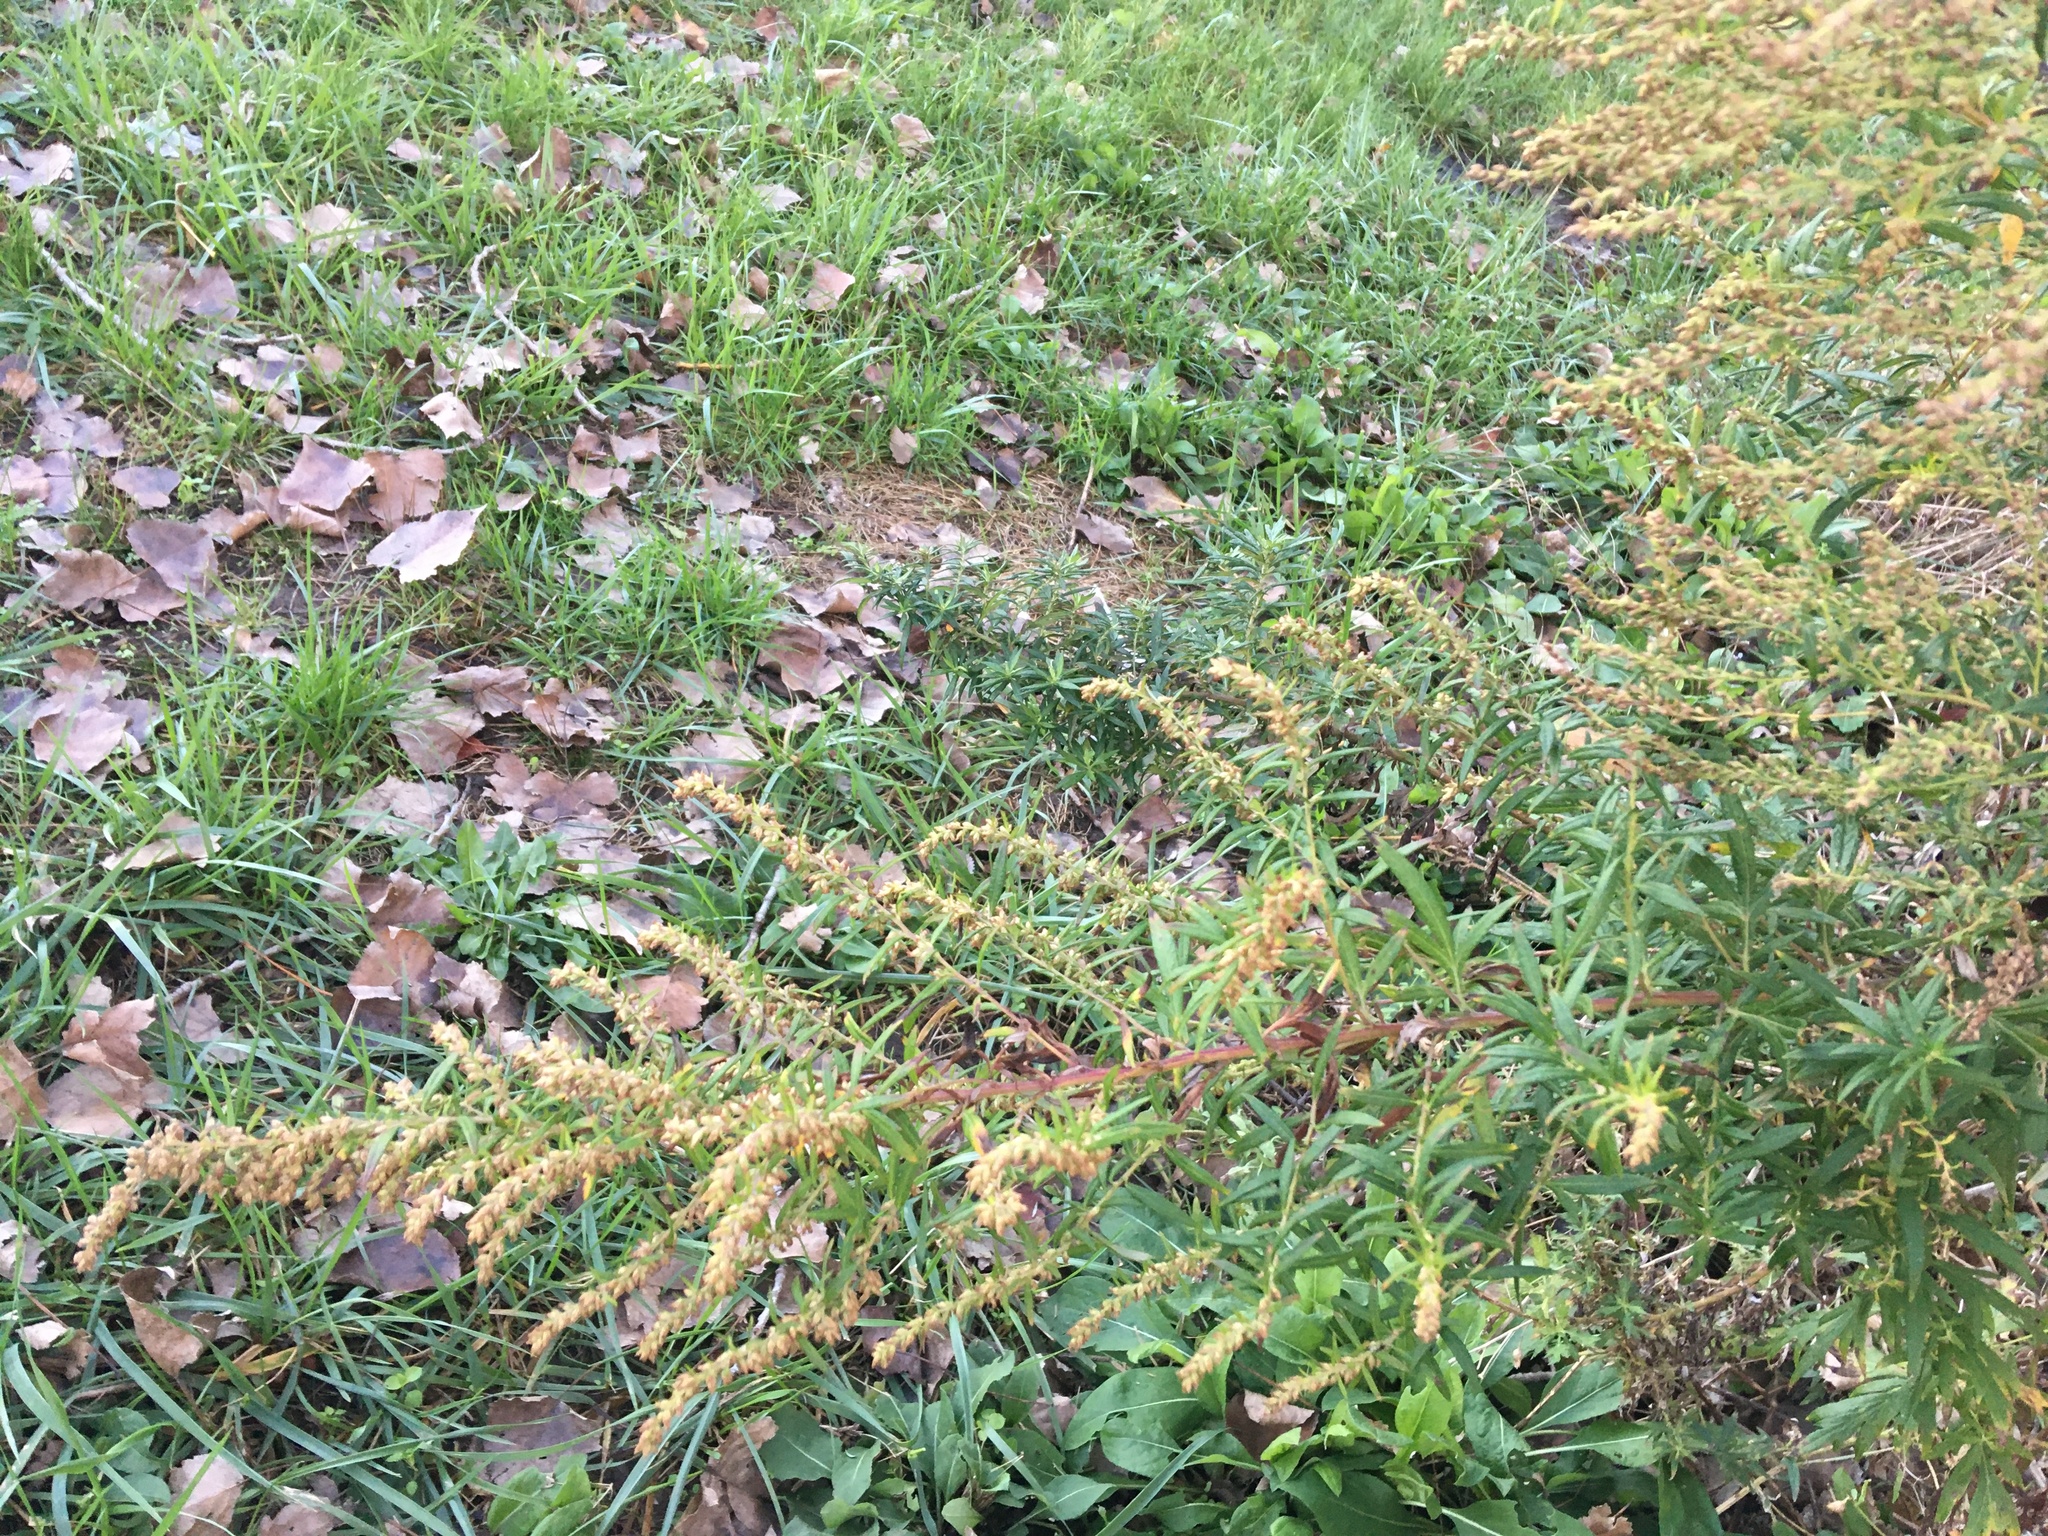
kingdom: Plantae
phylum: Tracheophyta
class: Magnoliopsida
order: Asterales
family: Asteraceae
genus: Artemisia
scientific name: Artemisia vulgaris
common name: Mugwort
